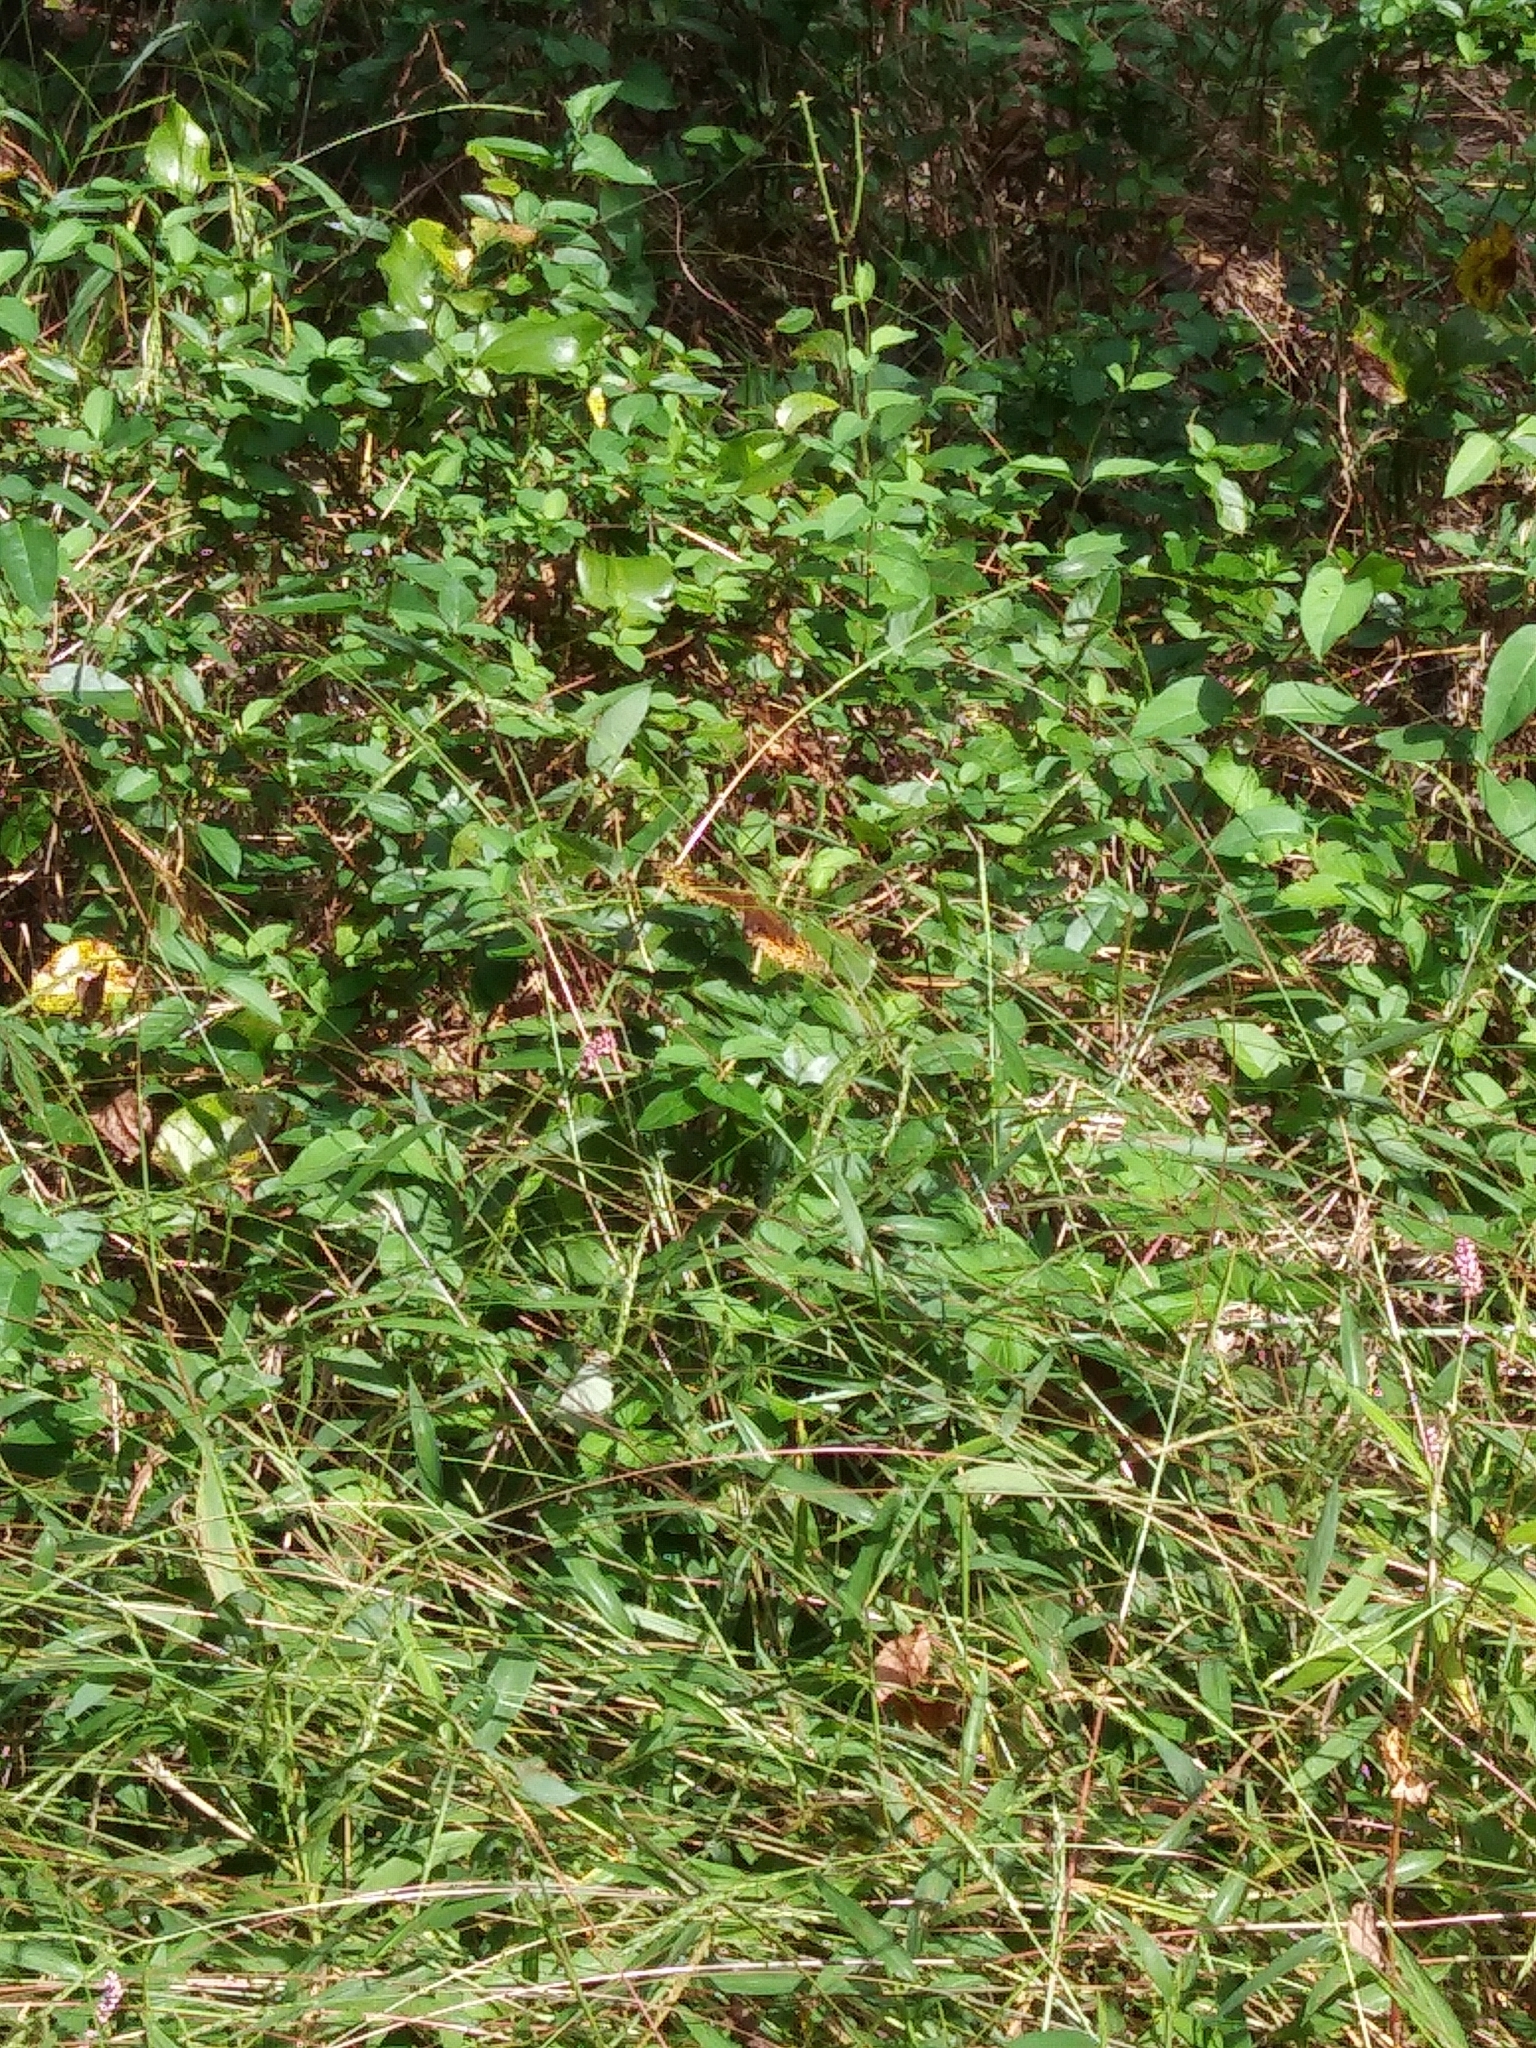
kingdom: Animalia
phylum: Arthropoda
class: Insecta
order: Lepidoptera
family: Nymphalidae
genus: Speyeria
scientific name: Speyeria cybele
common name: Great spangled fritillary
